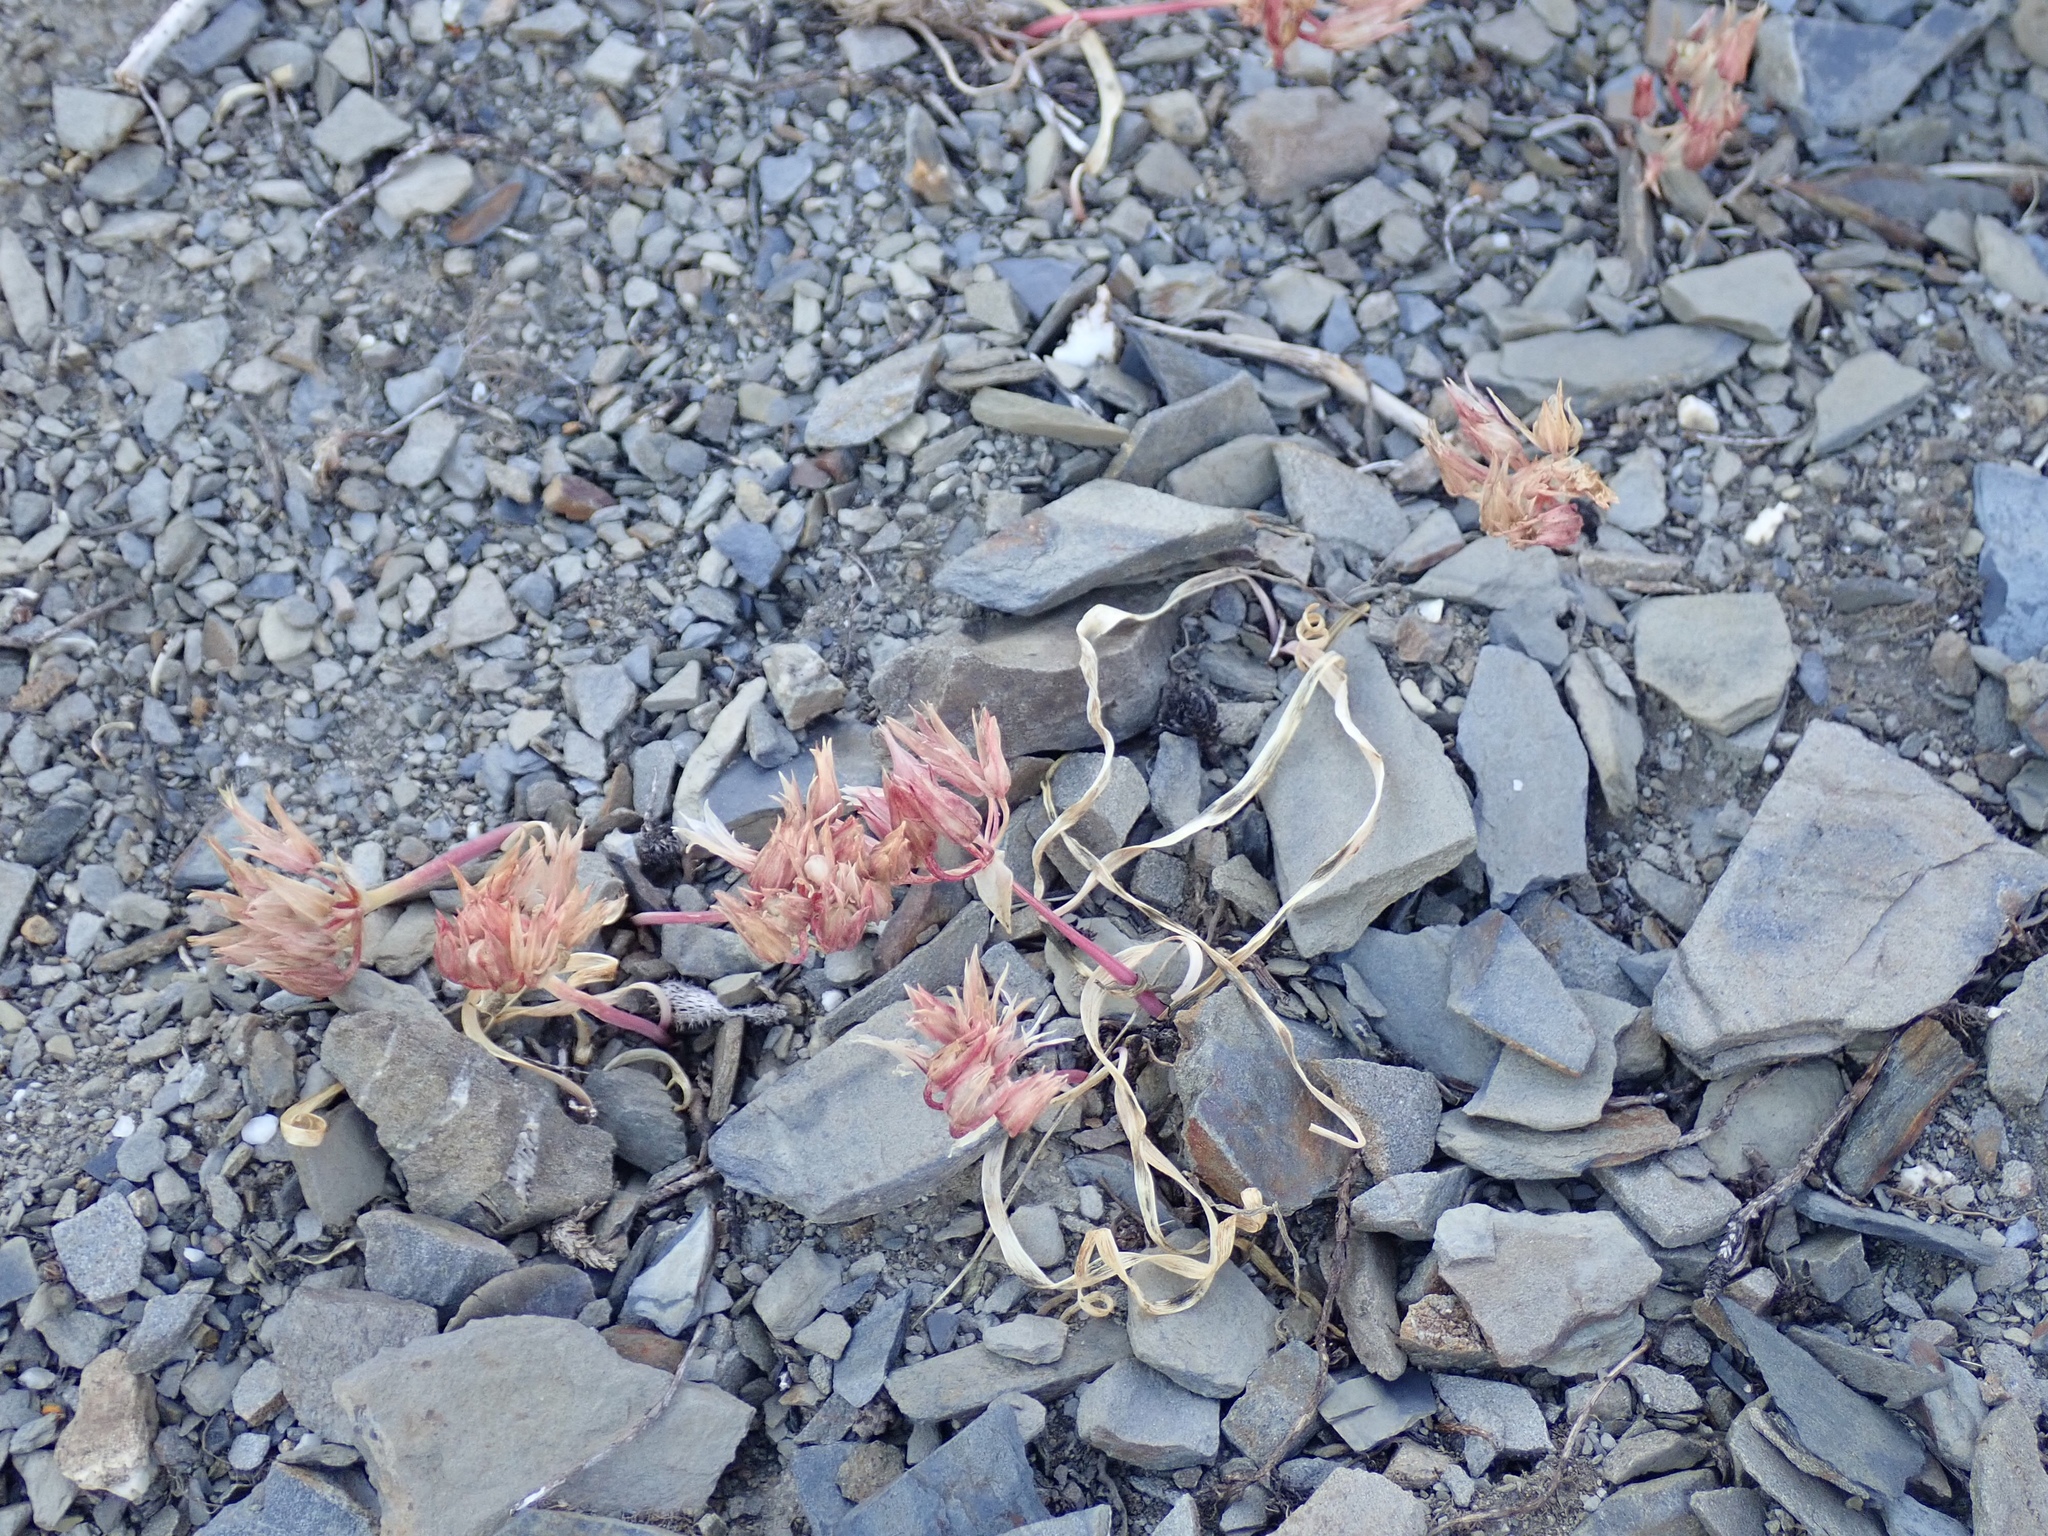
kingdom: Plantae
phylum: Tracheophyta
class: Liliopsida
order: Asparagales
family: Amaryllidaceae
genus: Allium
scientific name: Allium crenulatum
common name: Olympic onion
